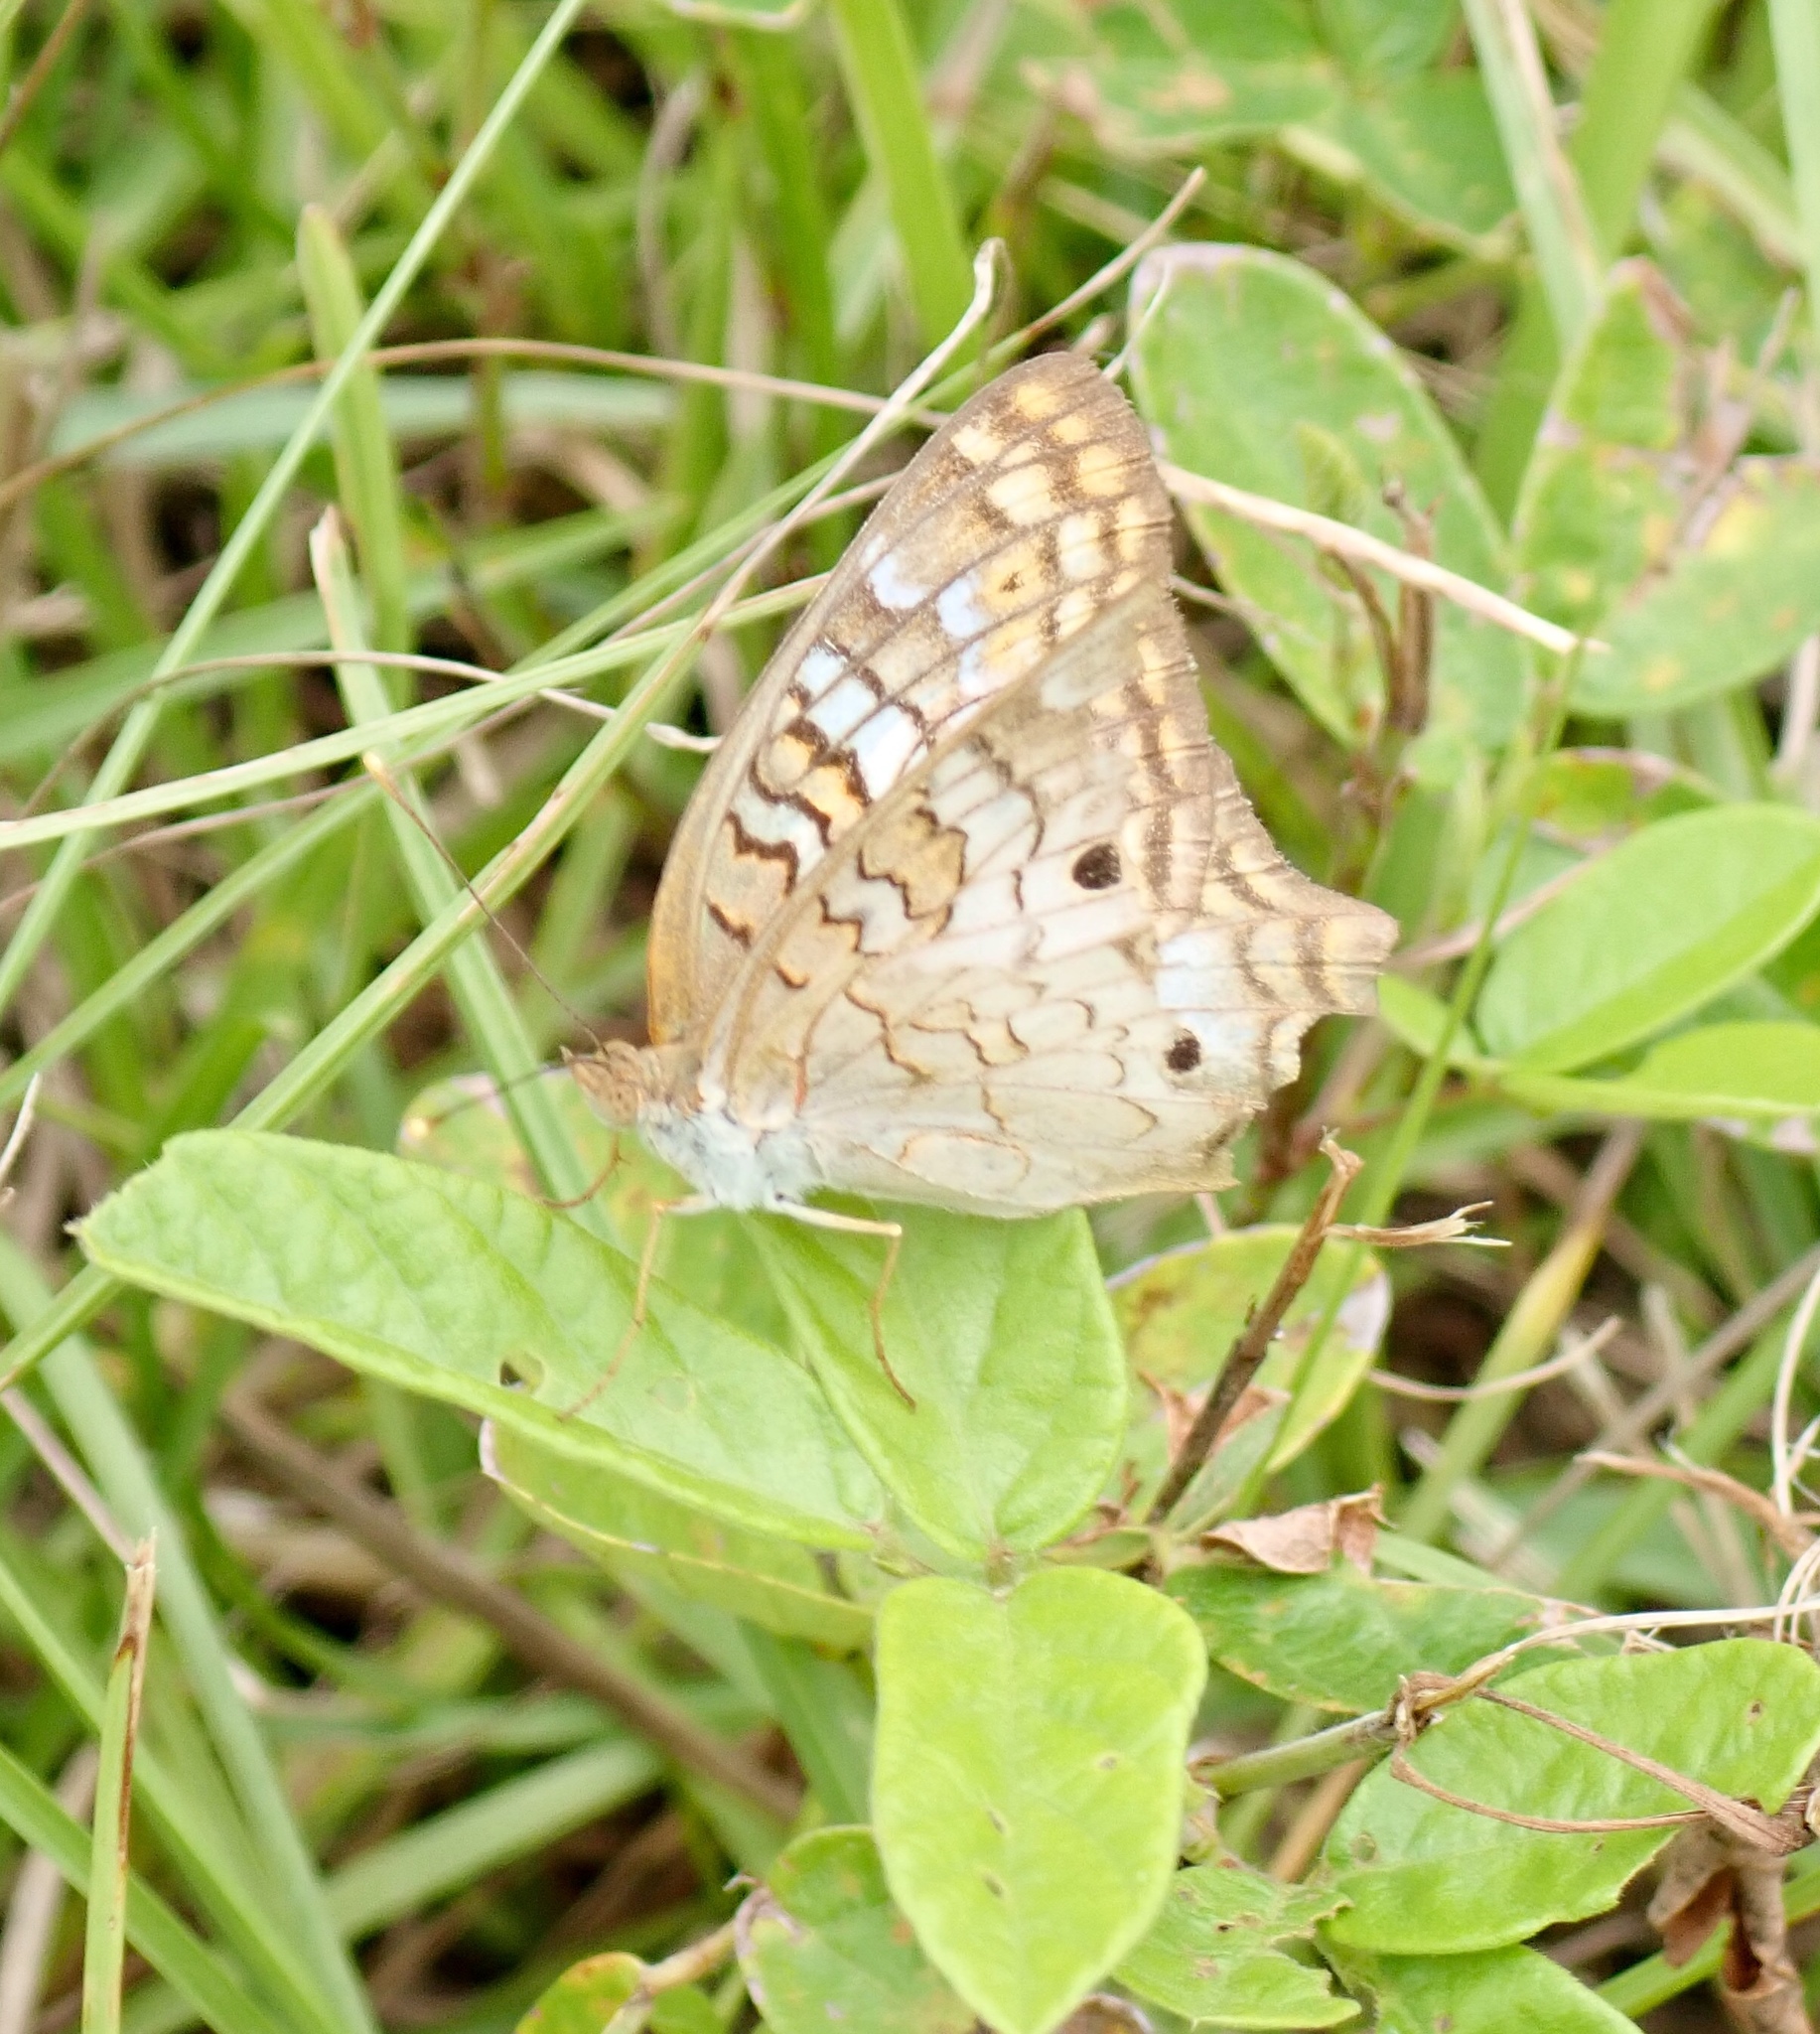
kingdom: Animalia
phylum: Arthropoda
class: Insecta
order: Lepidoptera
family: Nymphalidae
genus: Anartia
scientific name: Anartia jatrophae
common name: White peacock
